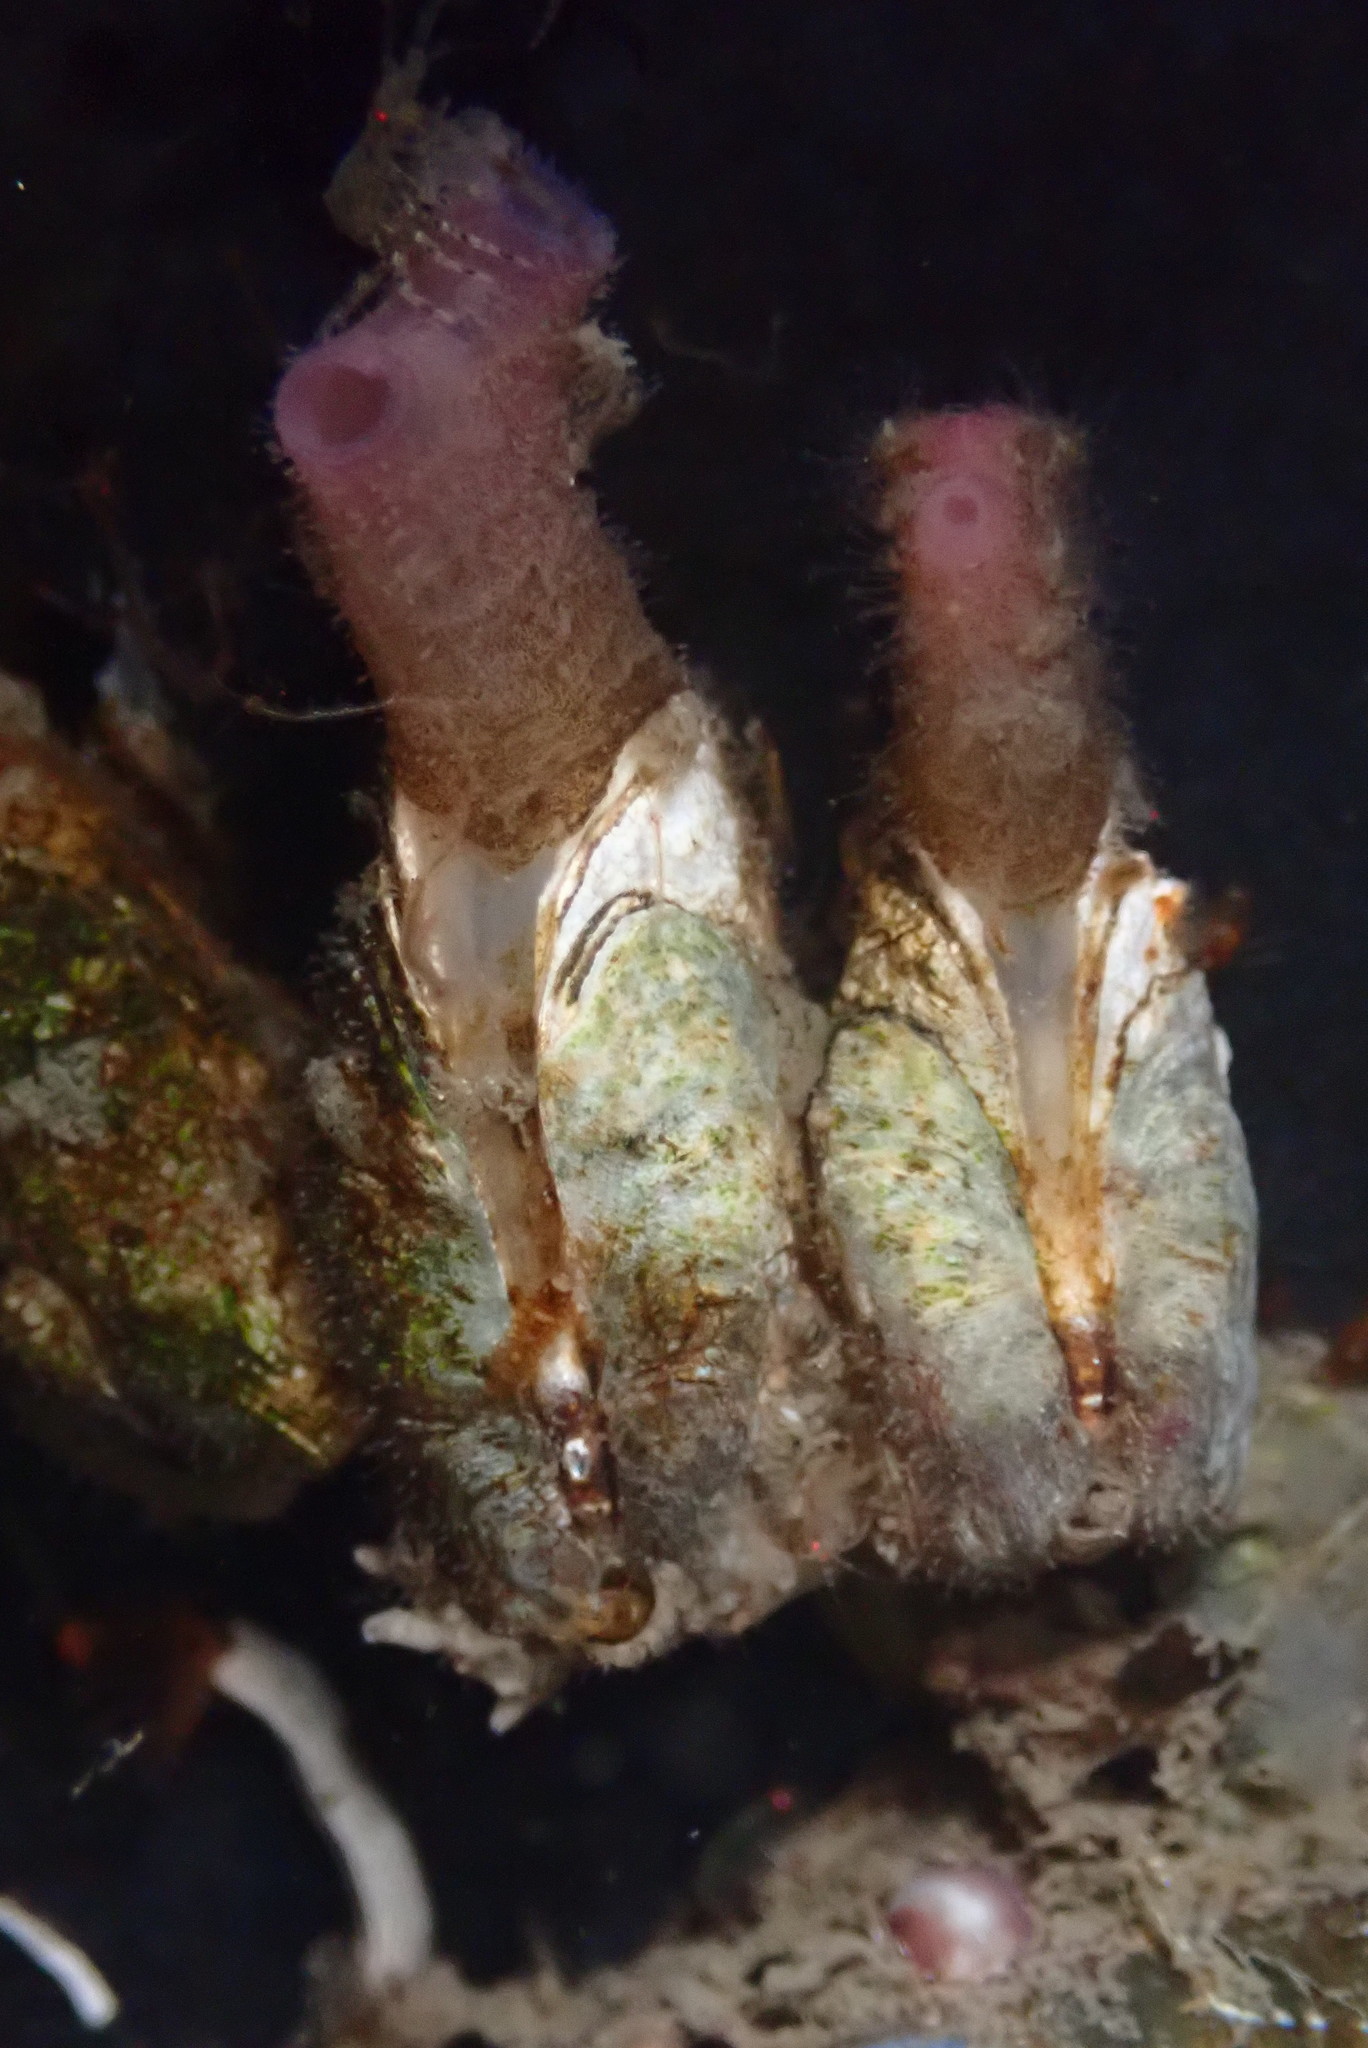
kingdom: Animalia
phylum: Mollusca
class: Bivalvia
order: Adapedonta
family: Hiatellidae
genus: Hiatella
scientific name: Hiatella arctica
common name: Arctic hiatella
